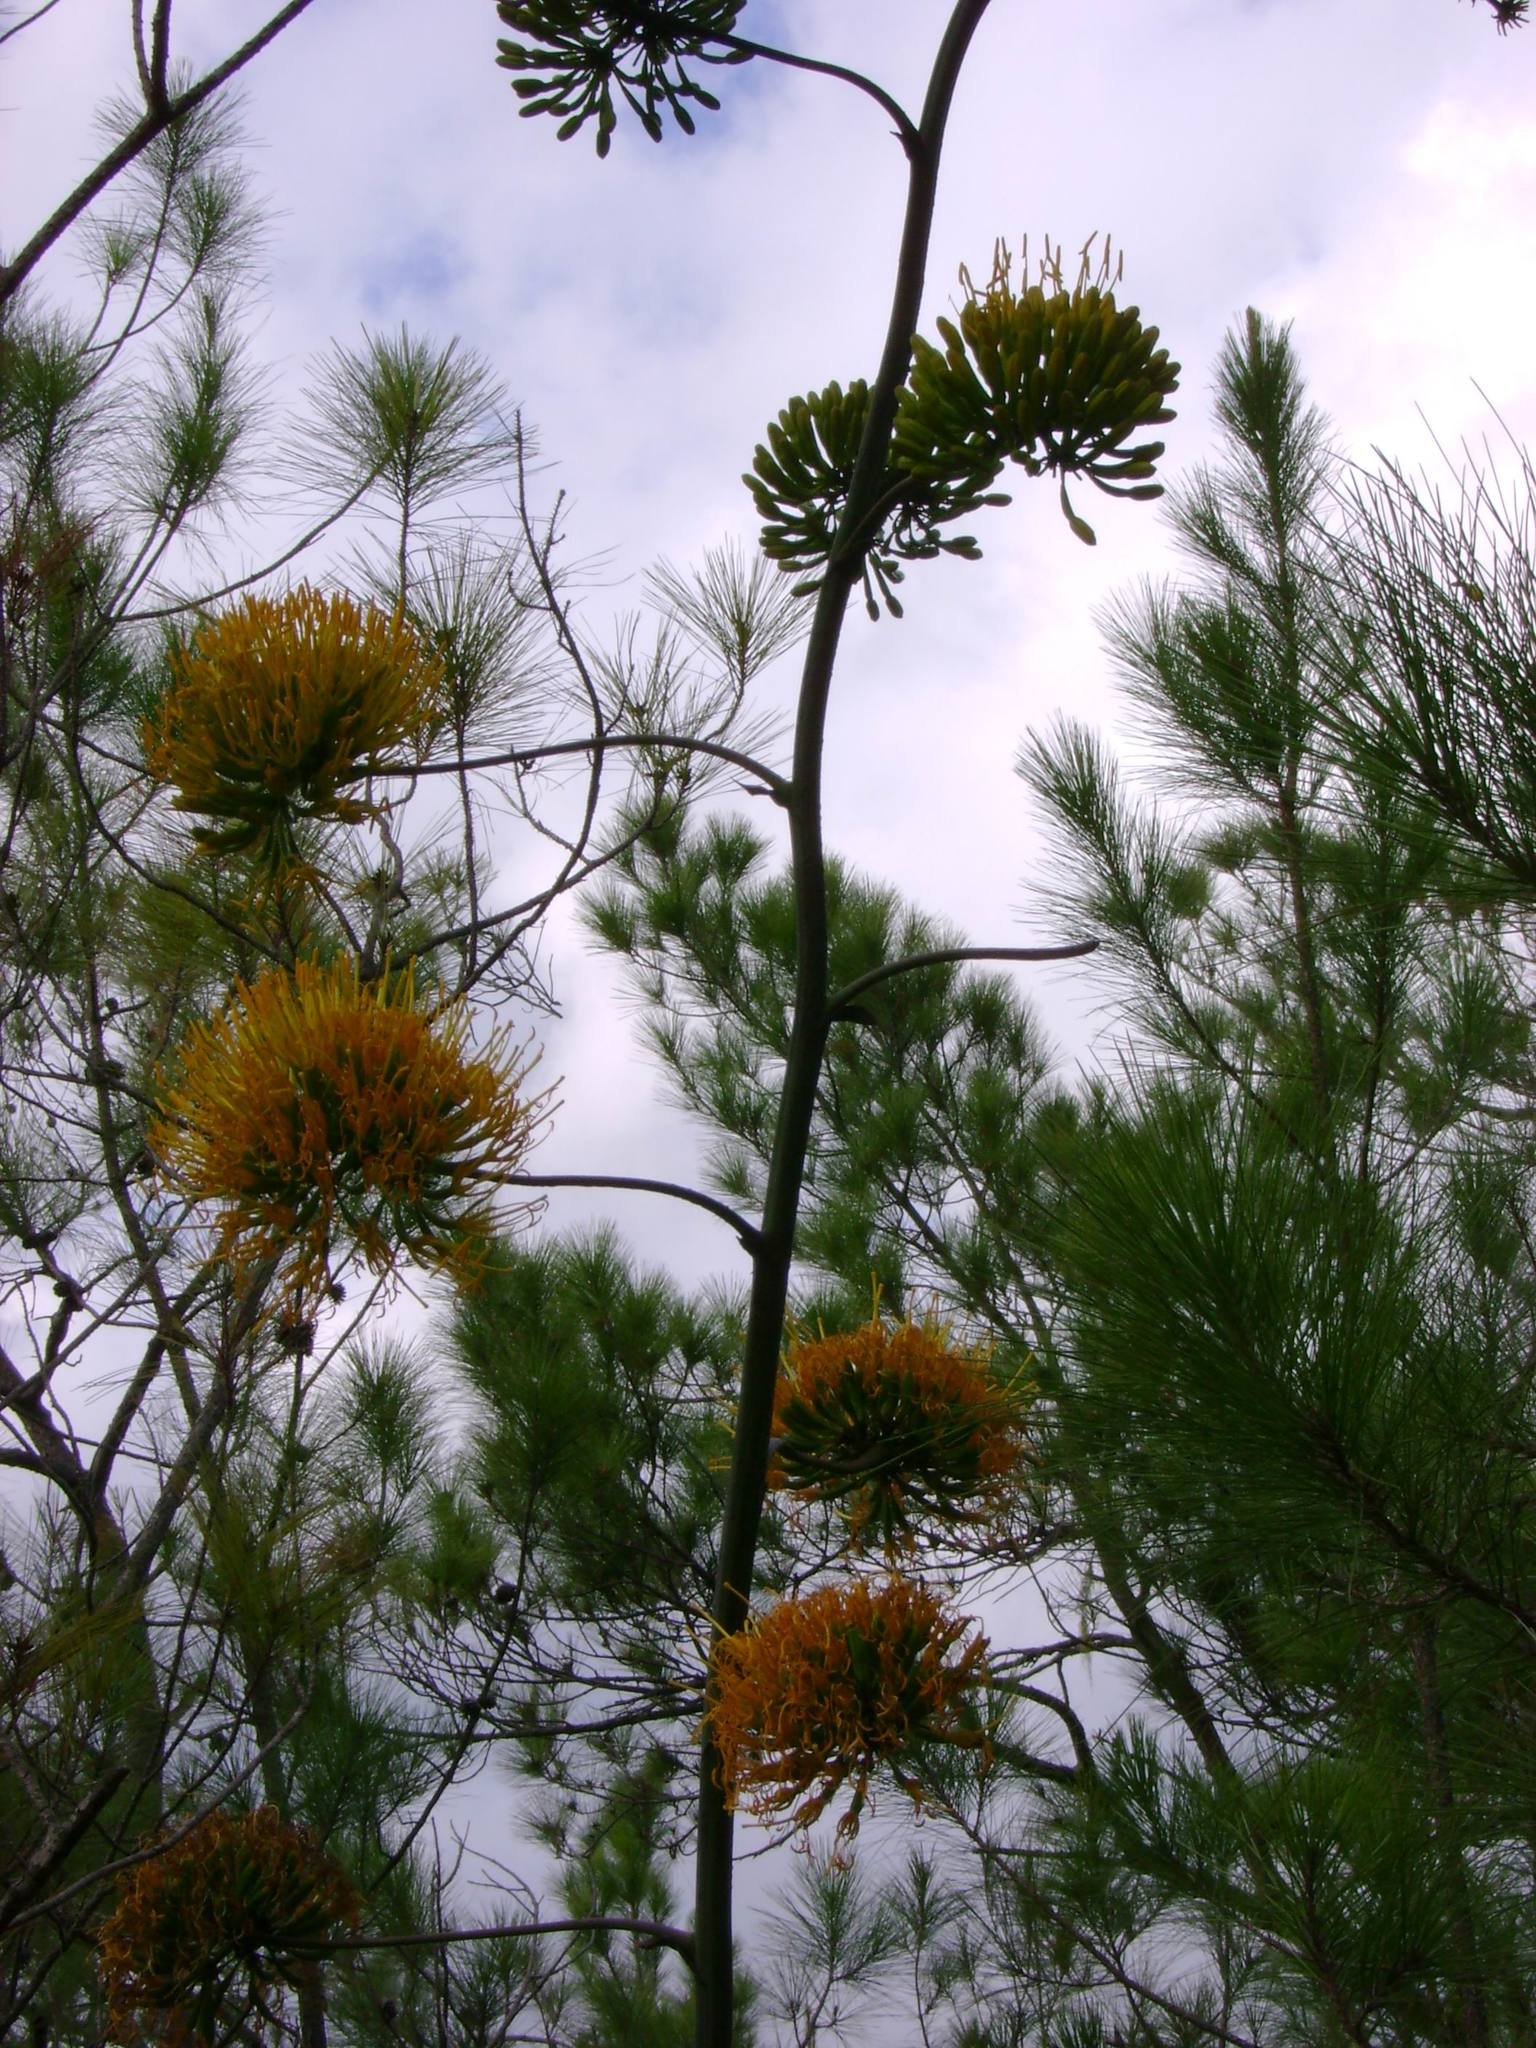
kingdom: Plantae
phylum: Tracheophyta
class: Liliopsida
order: Asparagales
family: Asparagaceae
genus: Agave
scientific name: Agave intermixta
